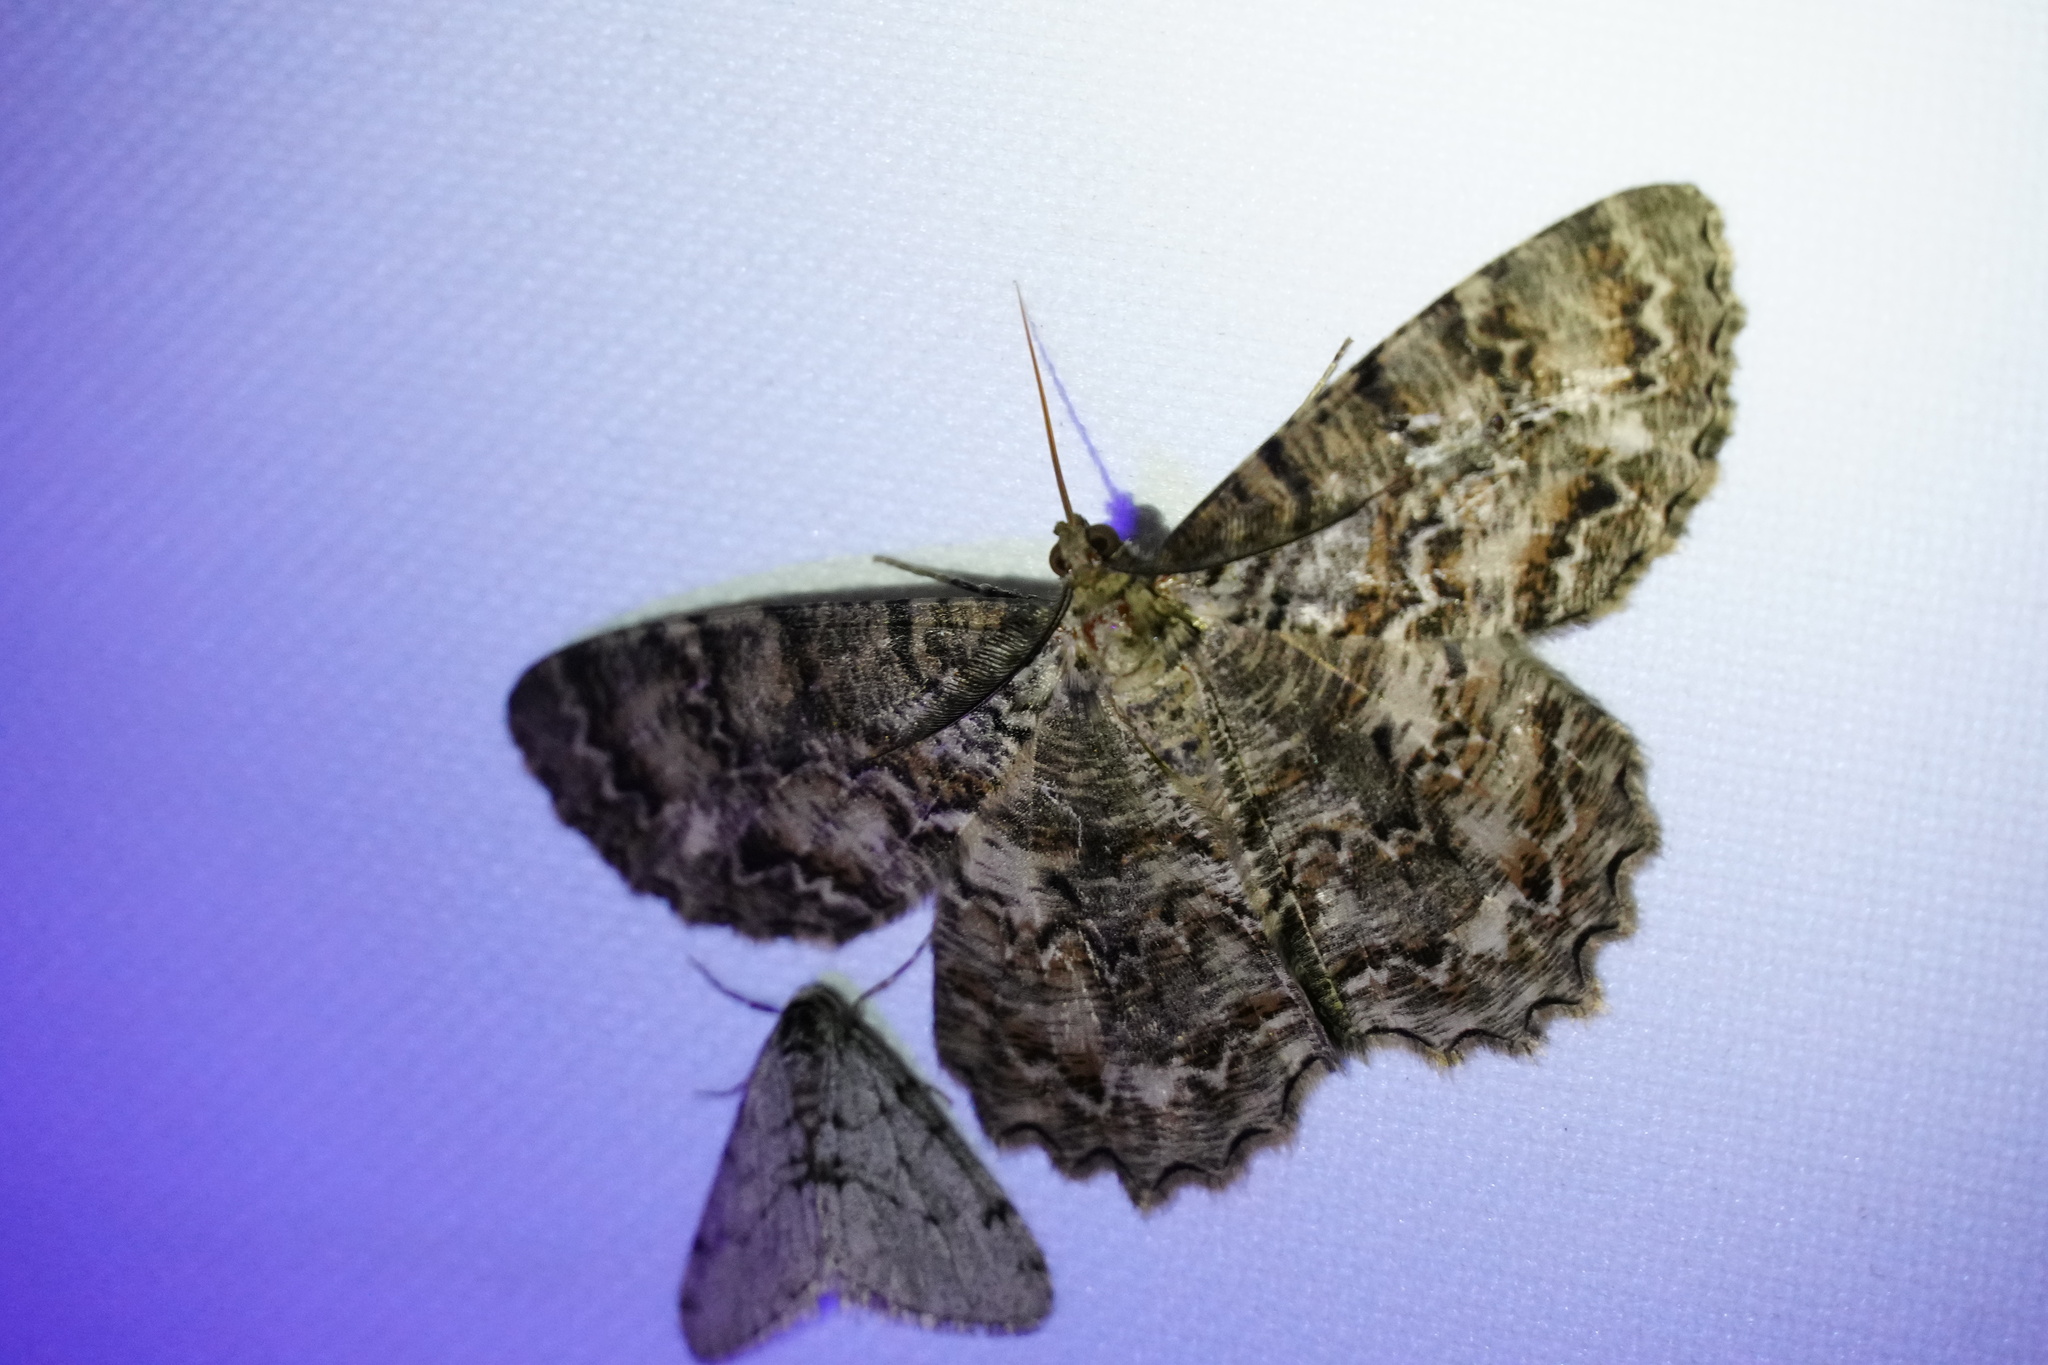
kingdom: Animalia
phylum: Arthropoda
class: Insecta
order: Lepidoptera
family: Geometridae
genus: Epimecis
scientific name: Epimecis hortaria
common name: Tulip-tree beauty
